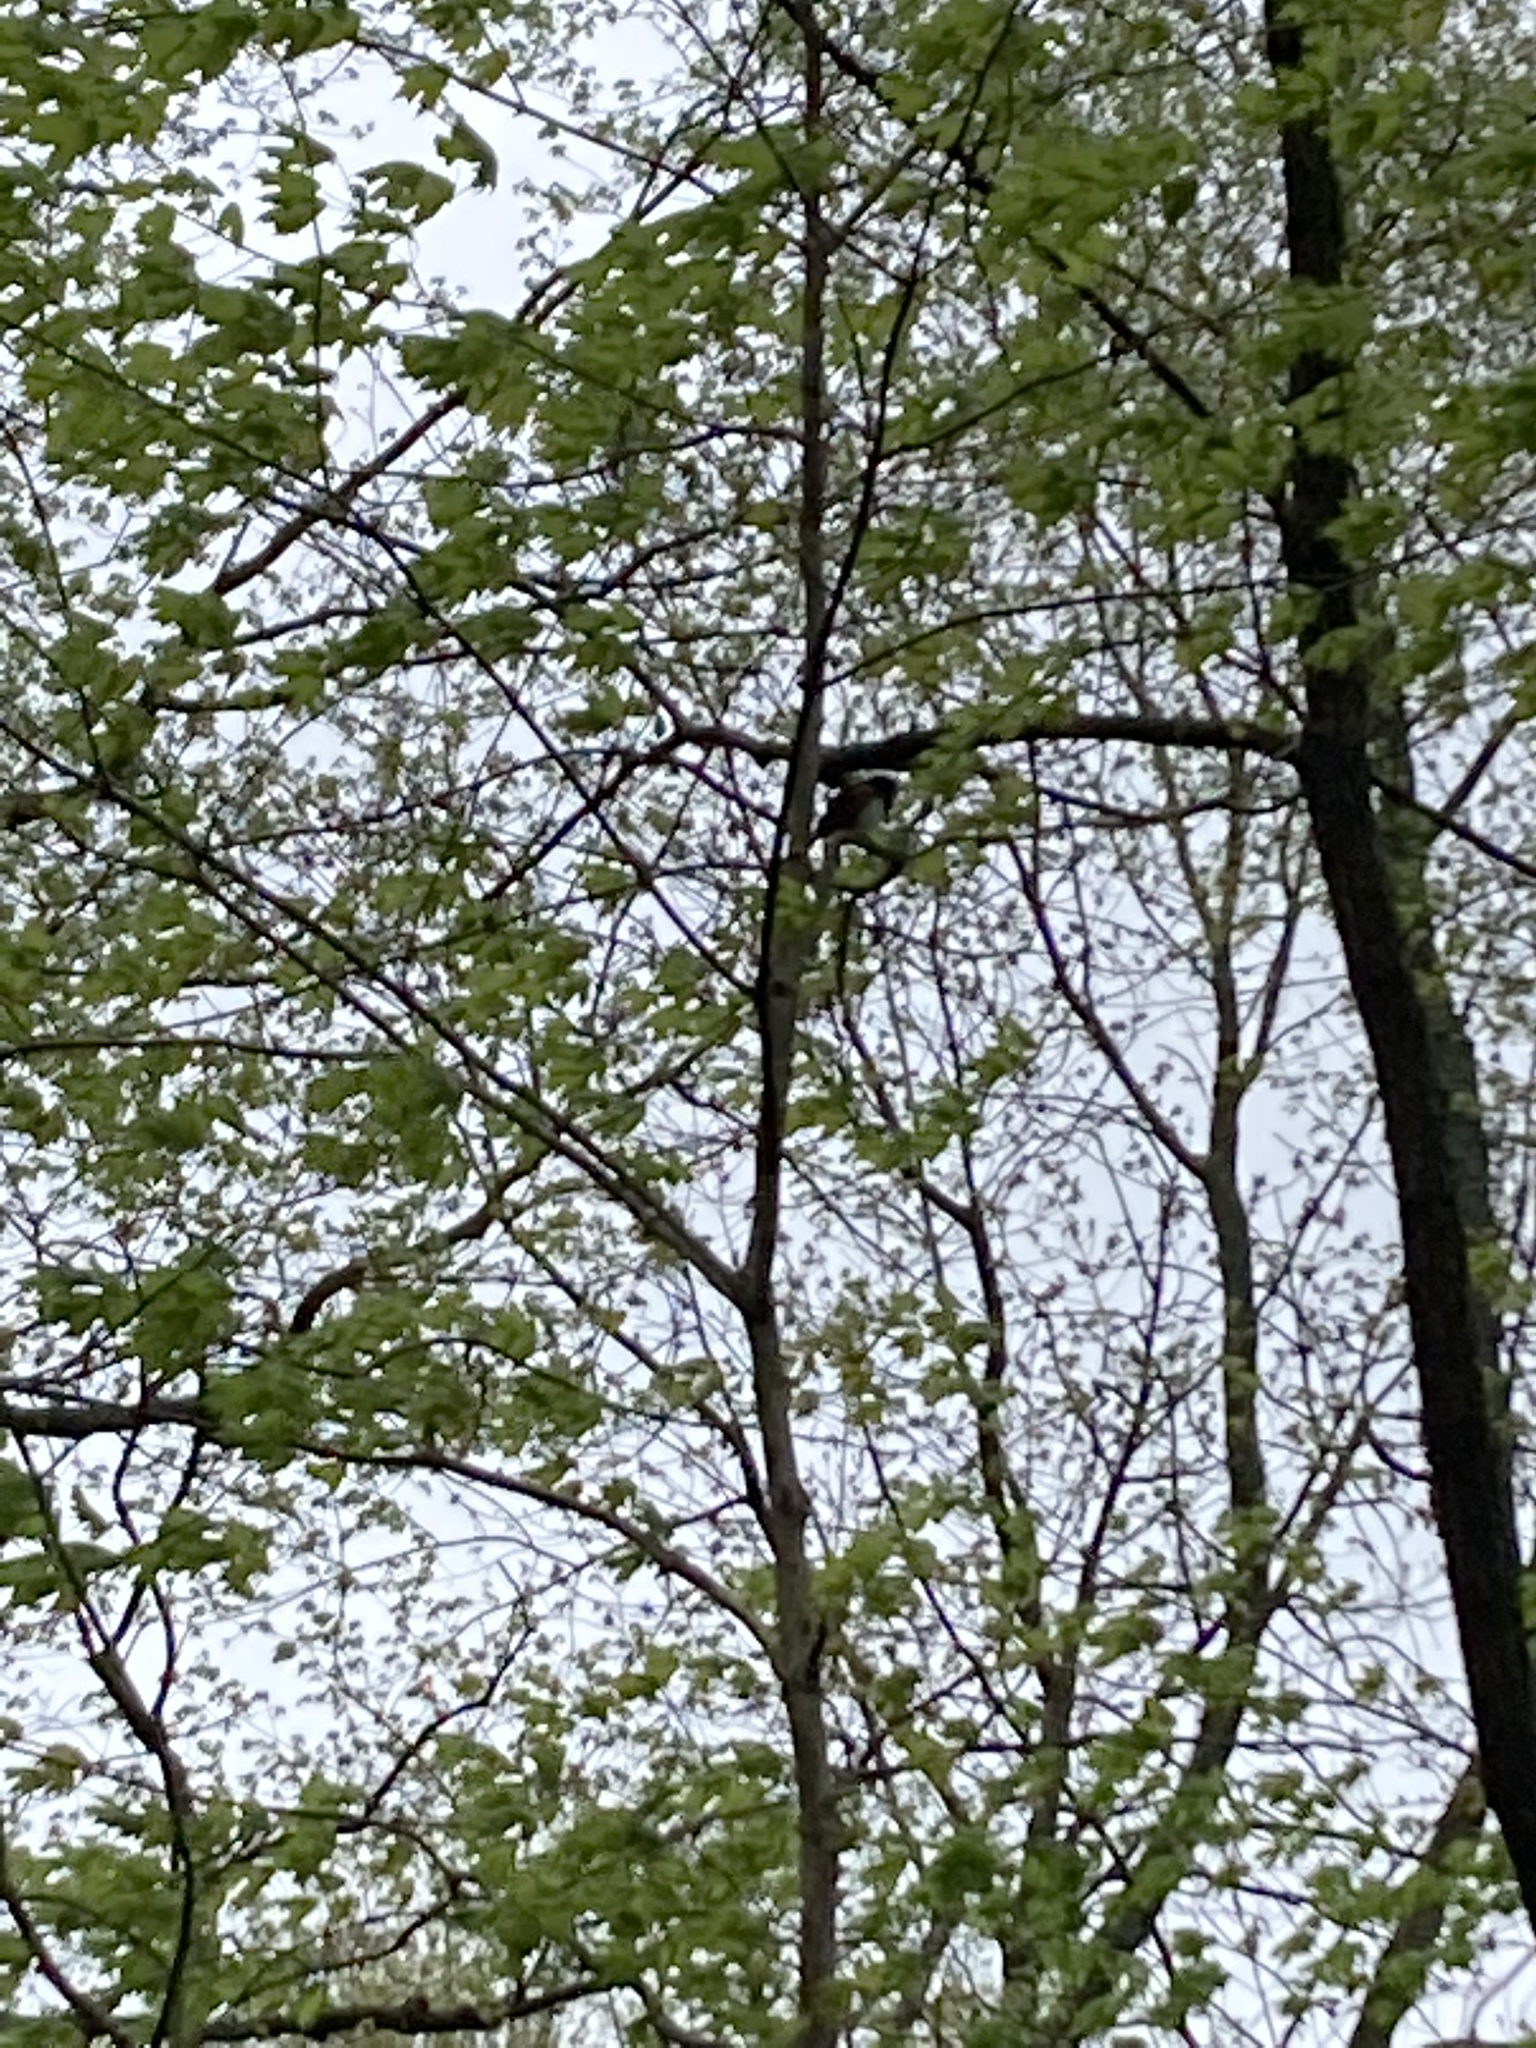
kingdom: Animalia
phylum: Chordata
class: Aves
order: Passeriformes
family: Passerellidae
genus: Pipilo
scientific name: Pipilo erythrophthalmus
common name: Eastern towhee
